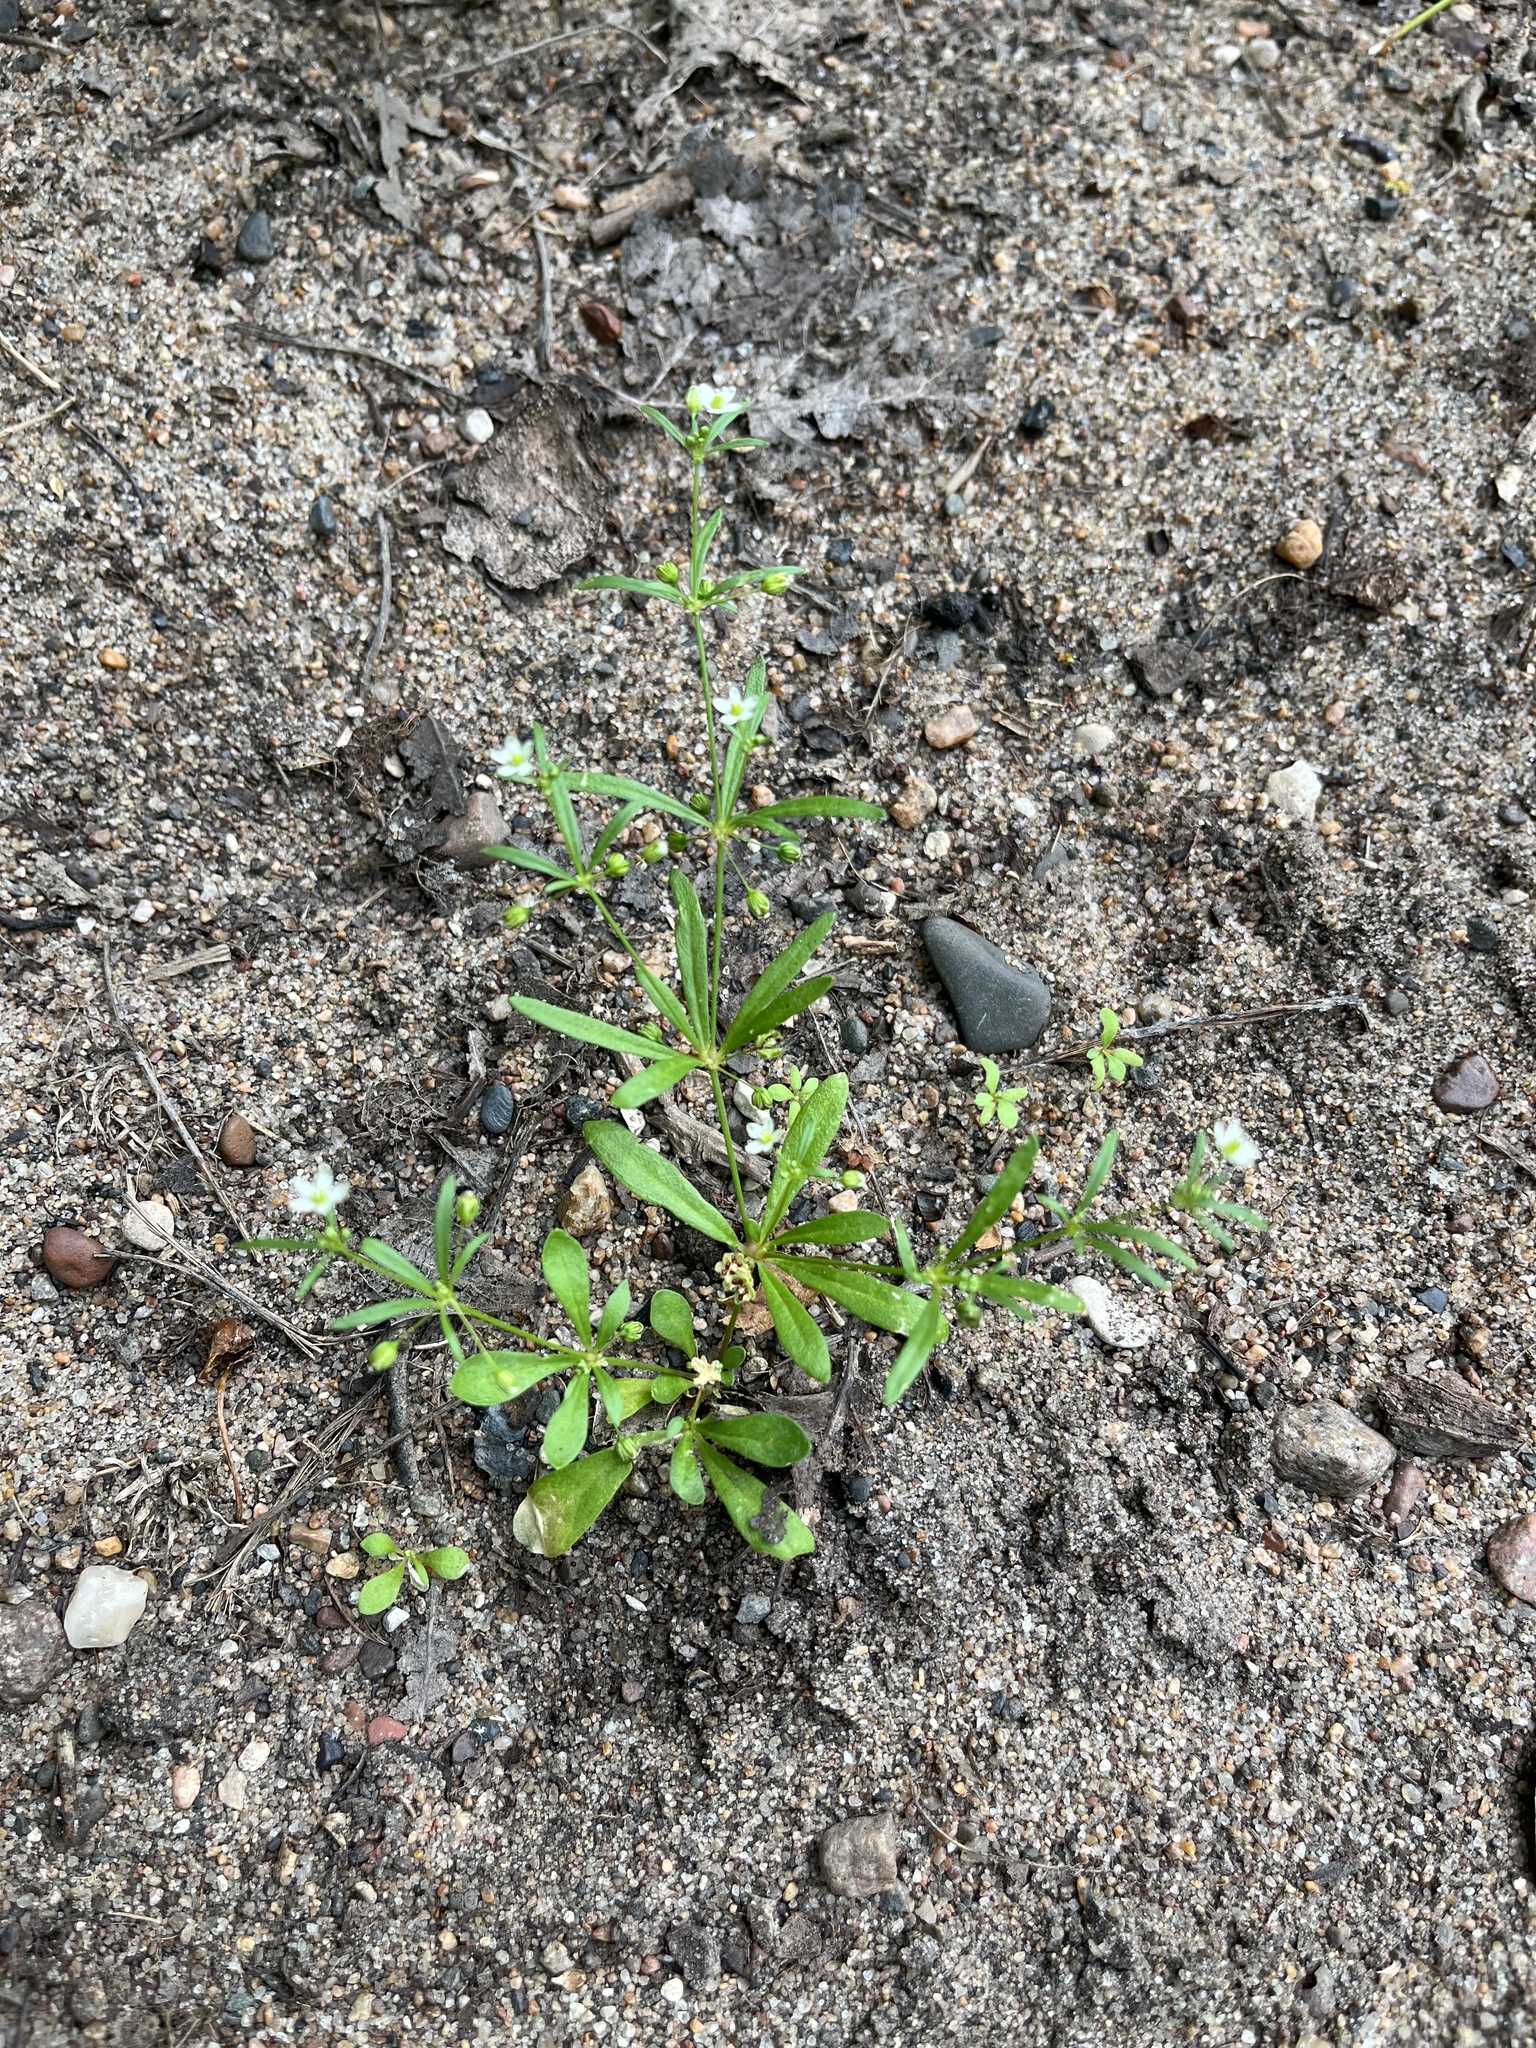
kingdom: Plantae
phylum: Tracheophyta
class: Magnoliopsida
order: Caryophyllales
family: Molluginaceae
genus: Mollugo
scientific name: Mollugo verticillata
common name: Green carpetweed
